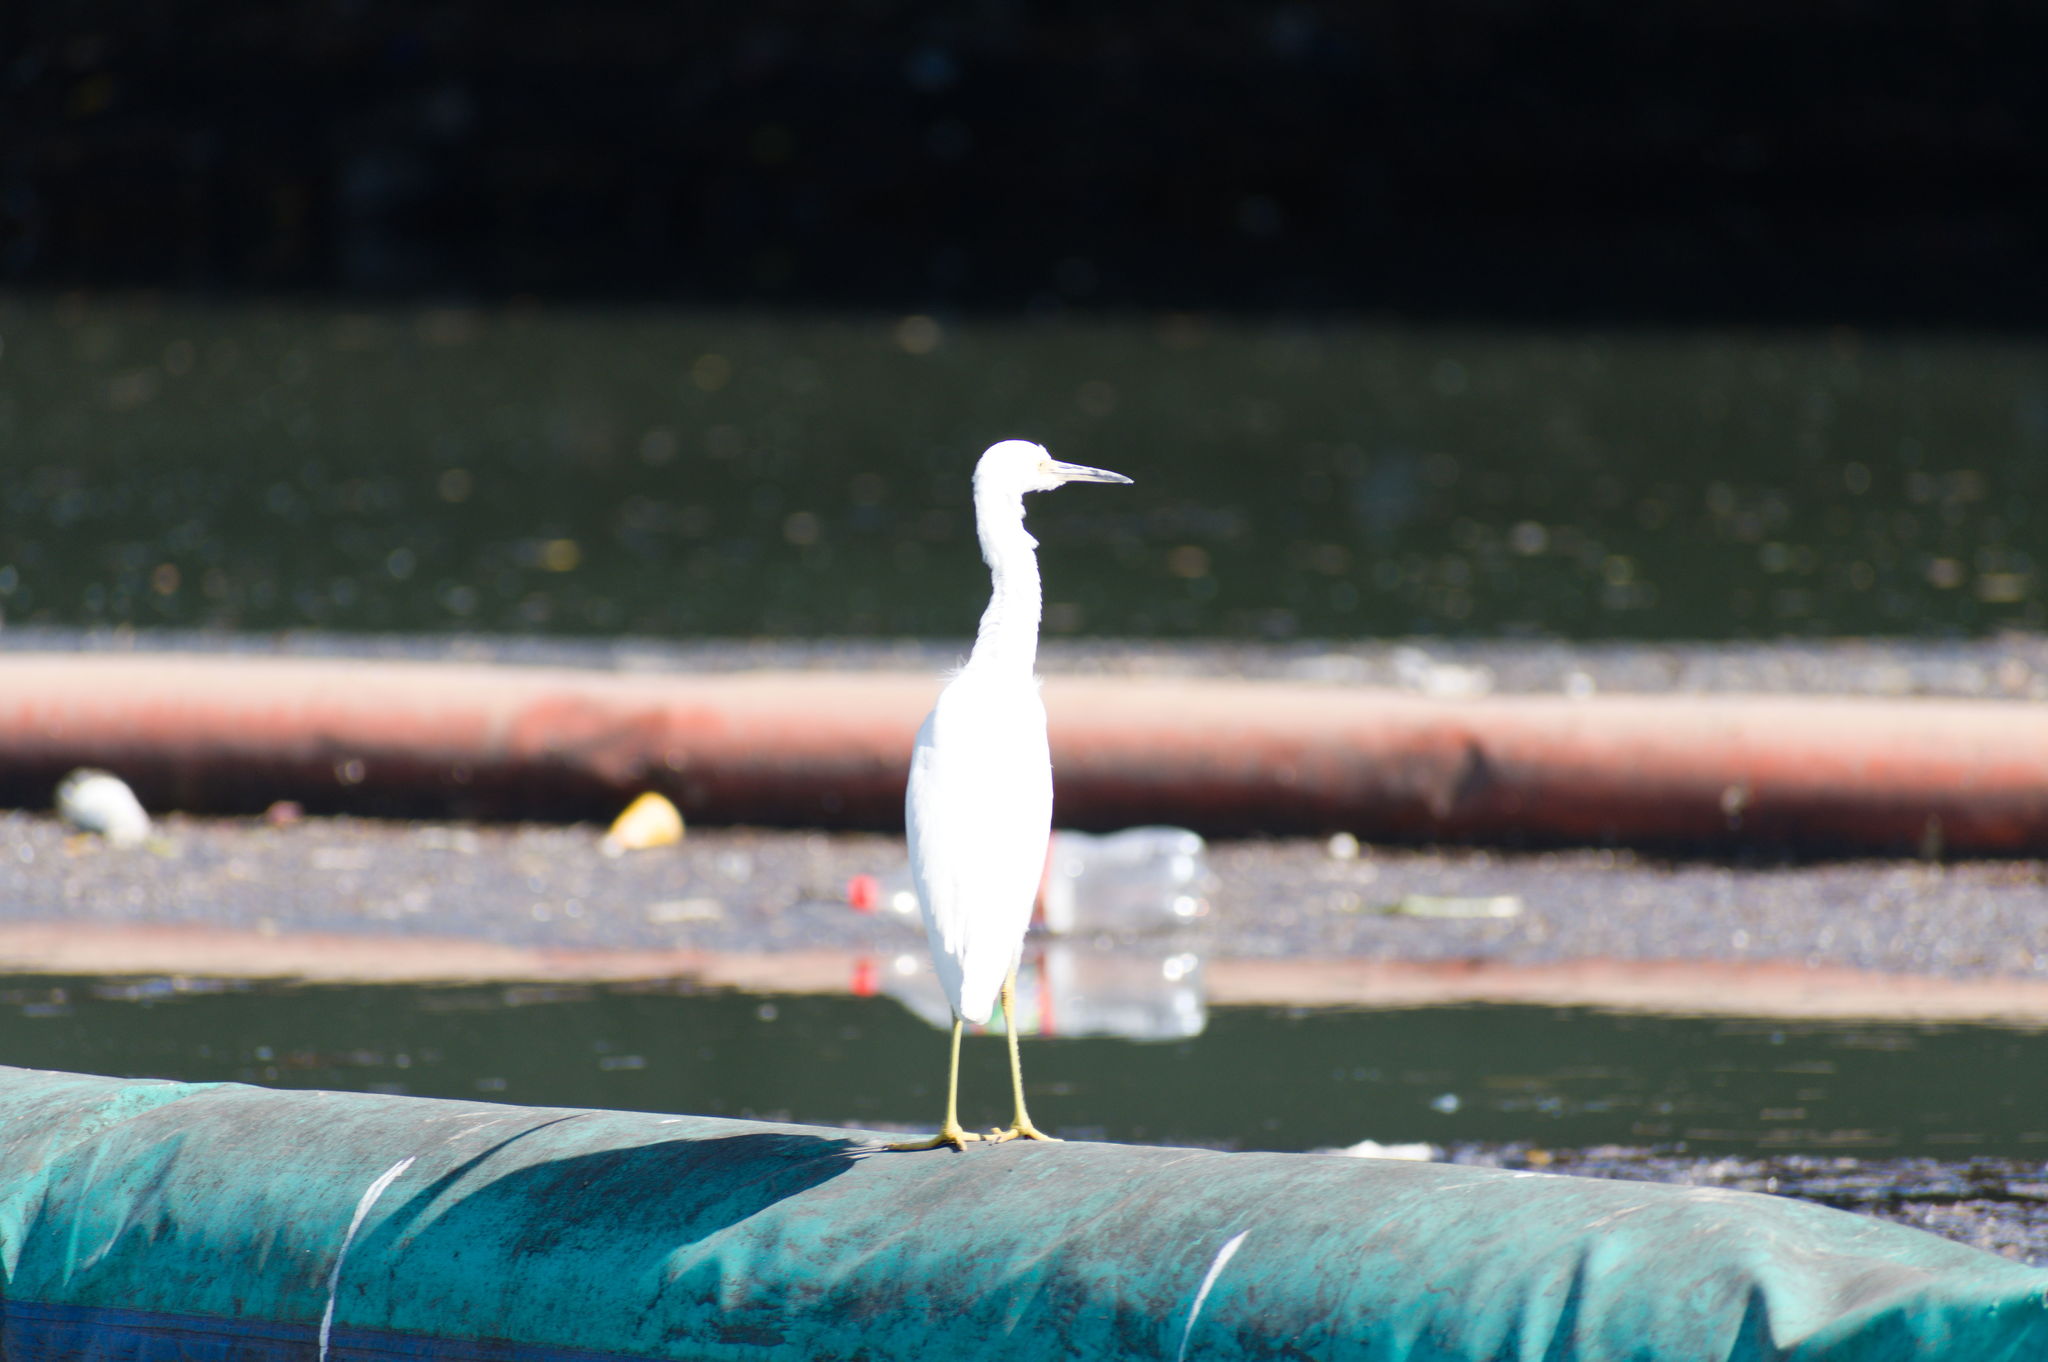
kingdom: Animalia
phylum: Chordata
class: Aves
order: Pelecaniformes
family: Ardeidae
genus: Egretta
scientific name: Egretta thula
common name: Snowy egret
